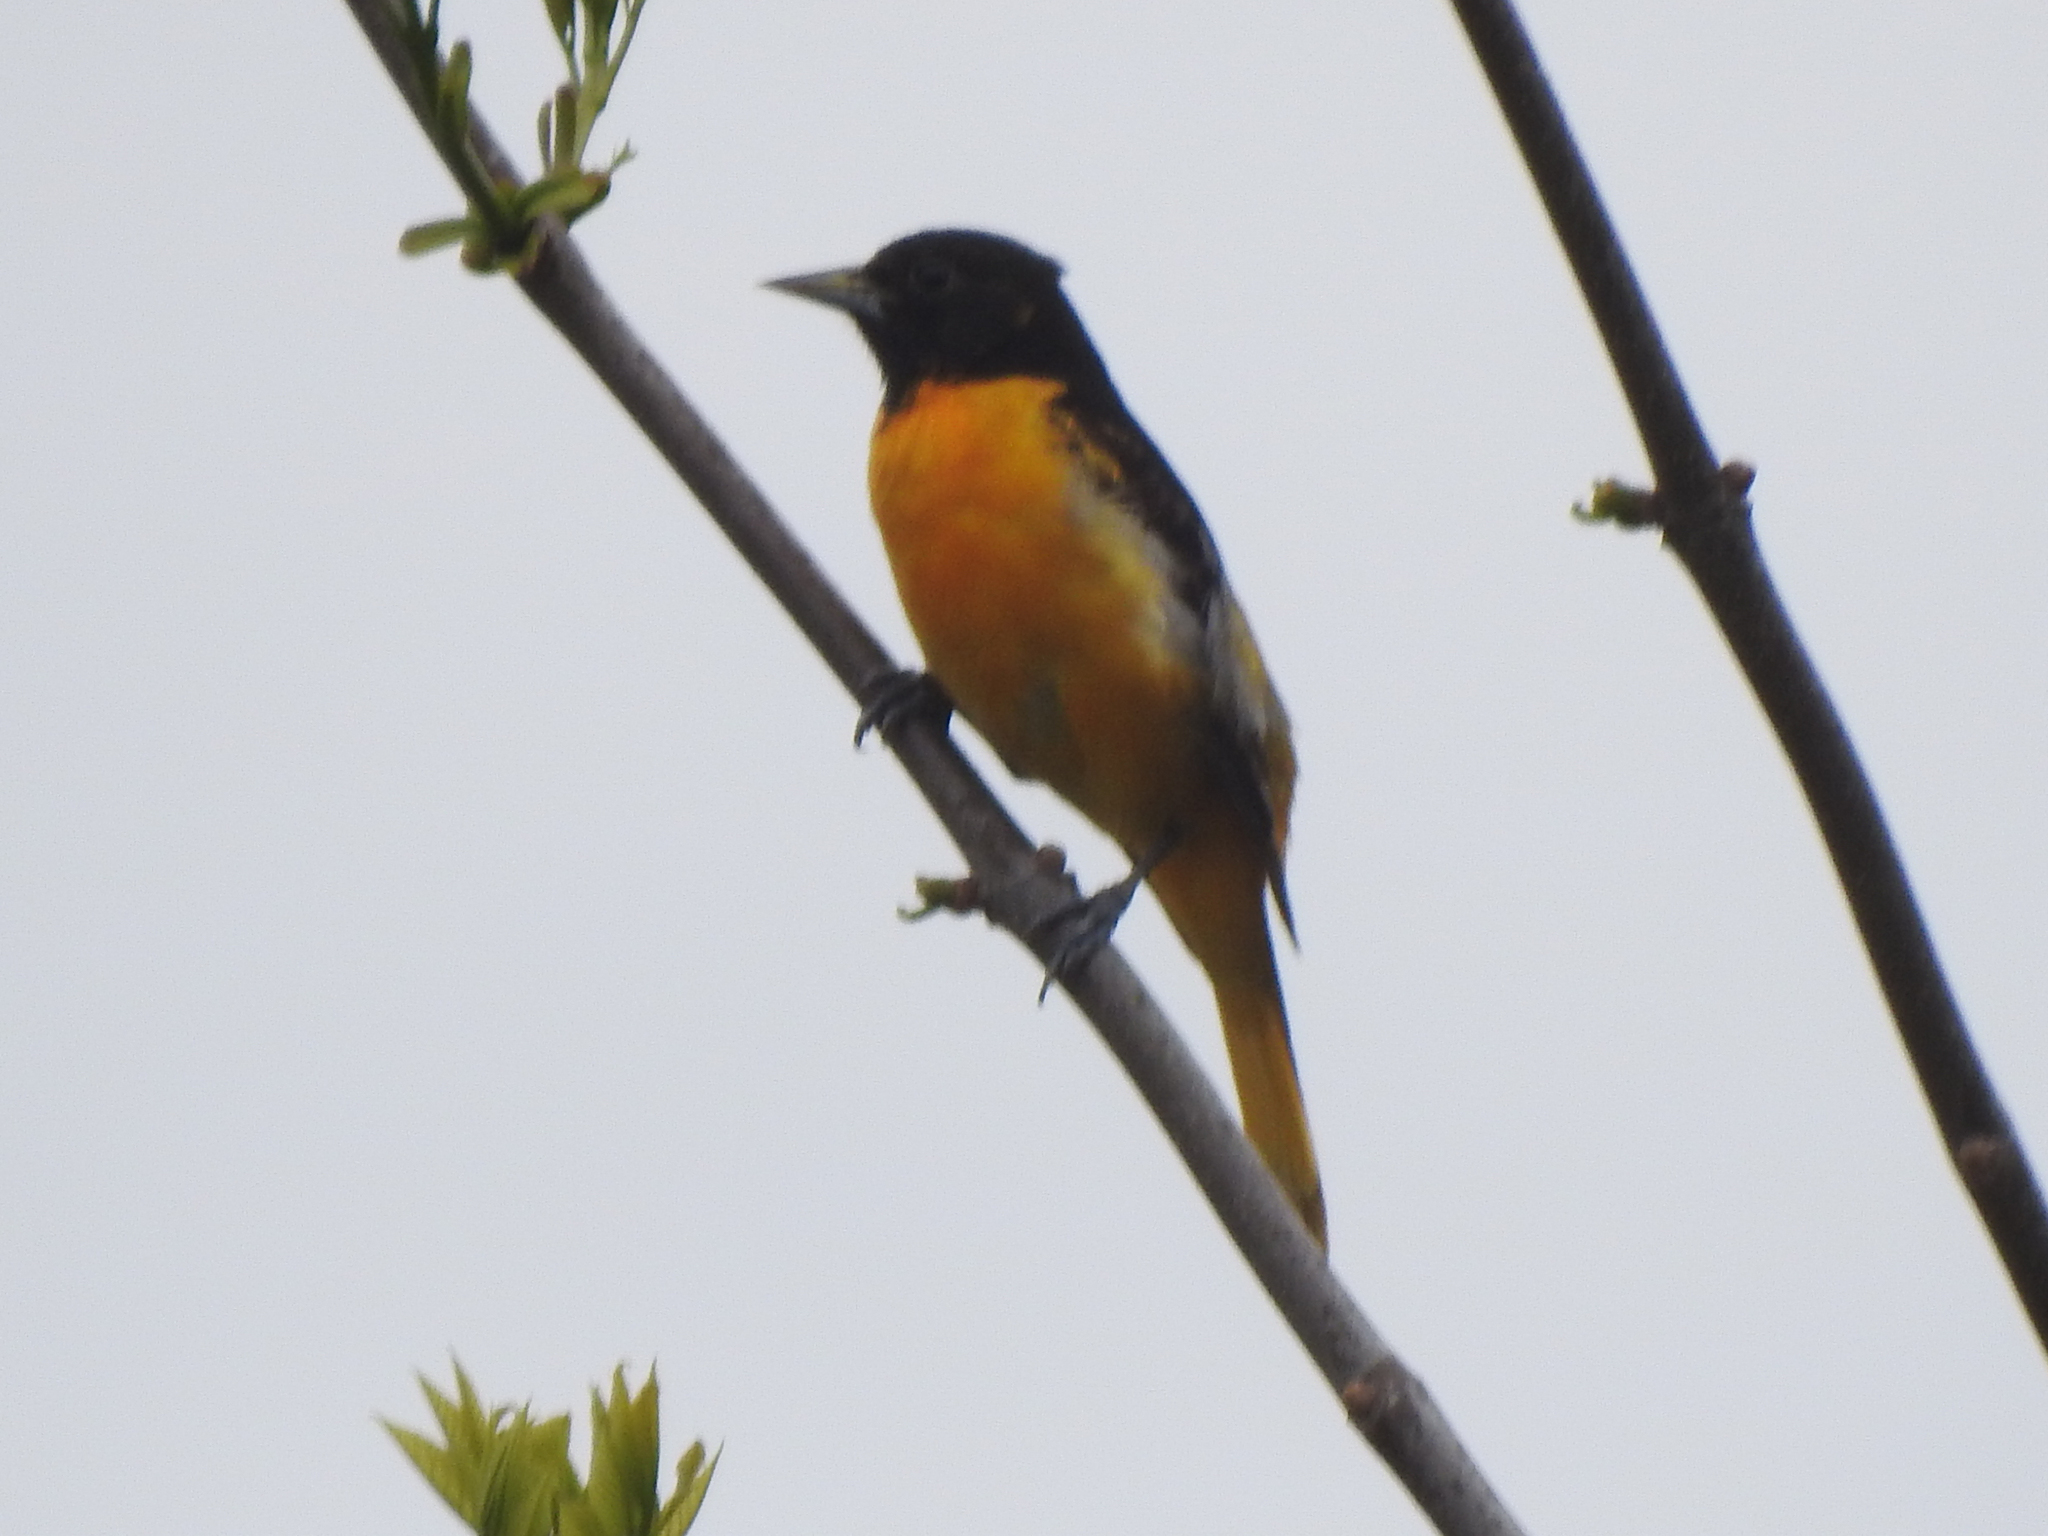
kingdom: Animalia
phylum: Chordata
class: Aves
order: Passeriformes
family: Icteridae
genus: Icterus
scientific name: Icterus galbula
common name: Baltimore oriole
